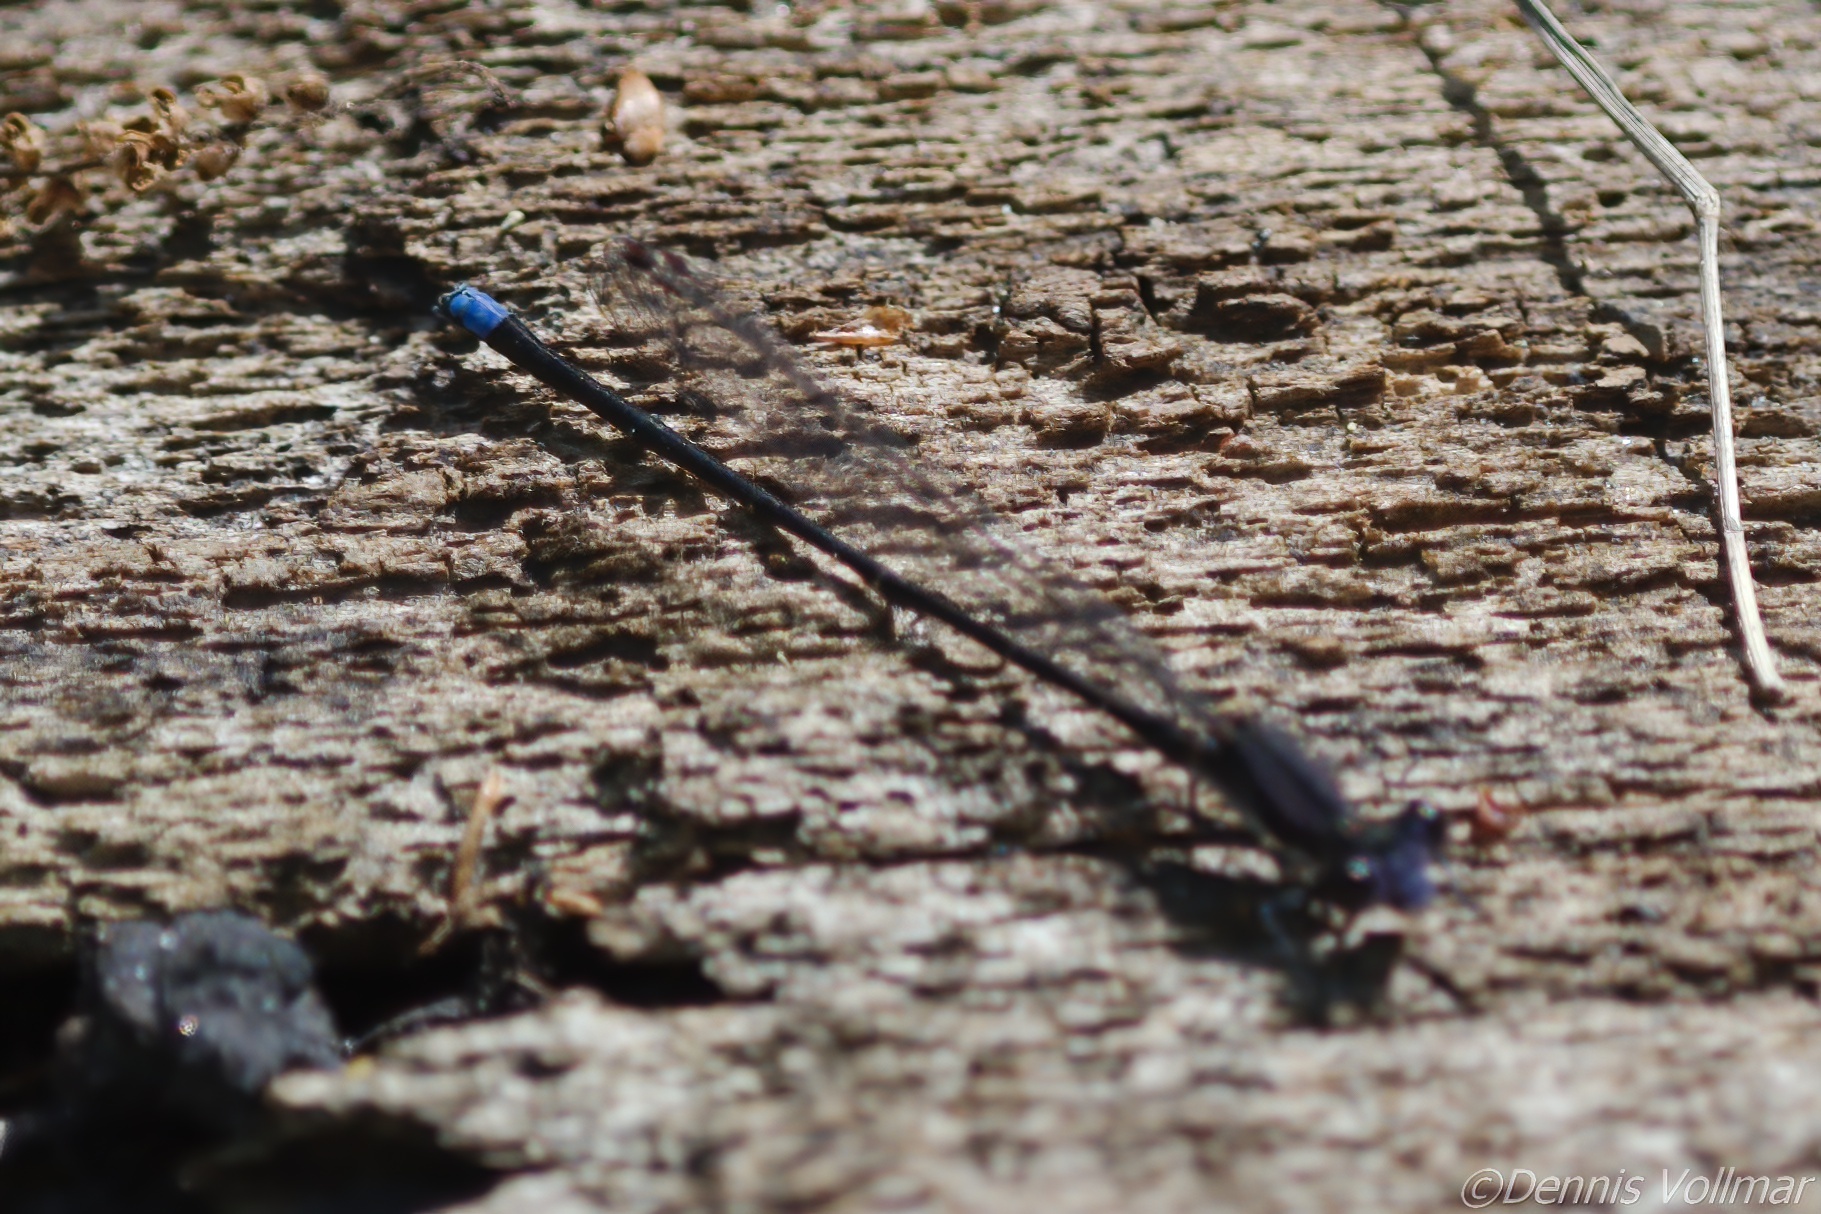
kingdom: Animalia
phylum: Arthropoda
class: Insecta
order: Odonata
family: Coenagrionidae
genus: Argia
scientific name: Argia tibialis
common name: Blue-tipped dancer
